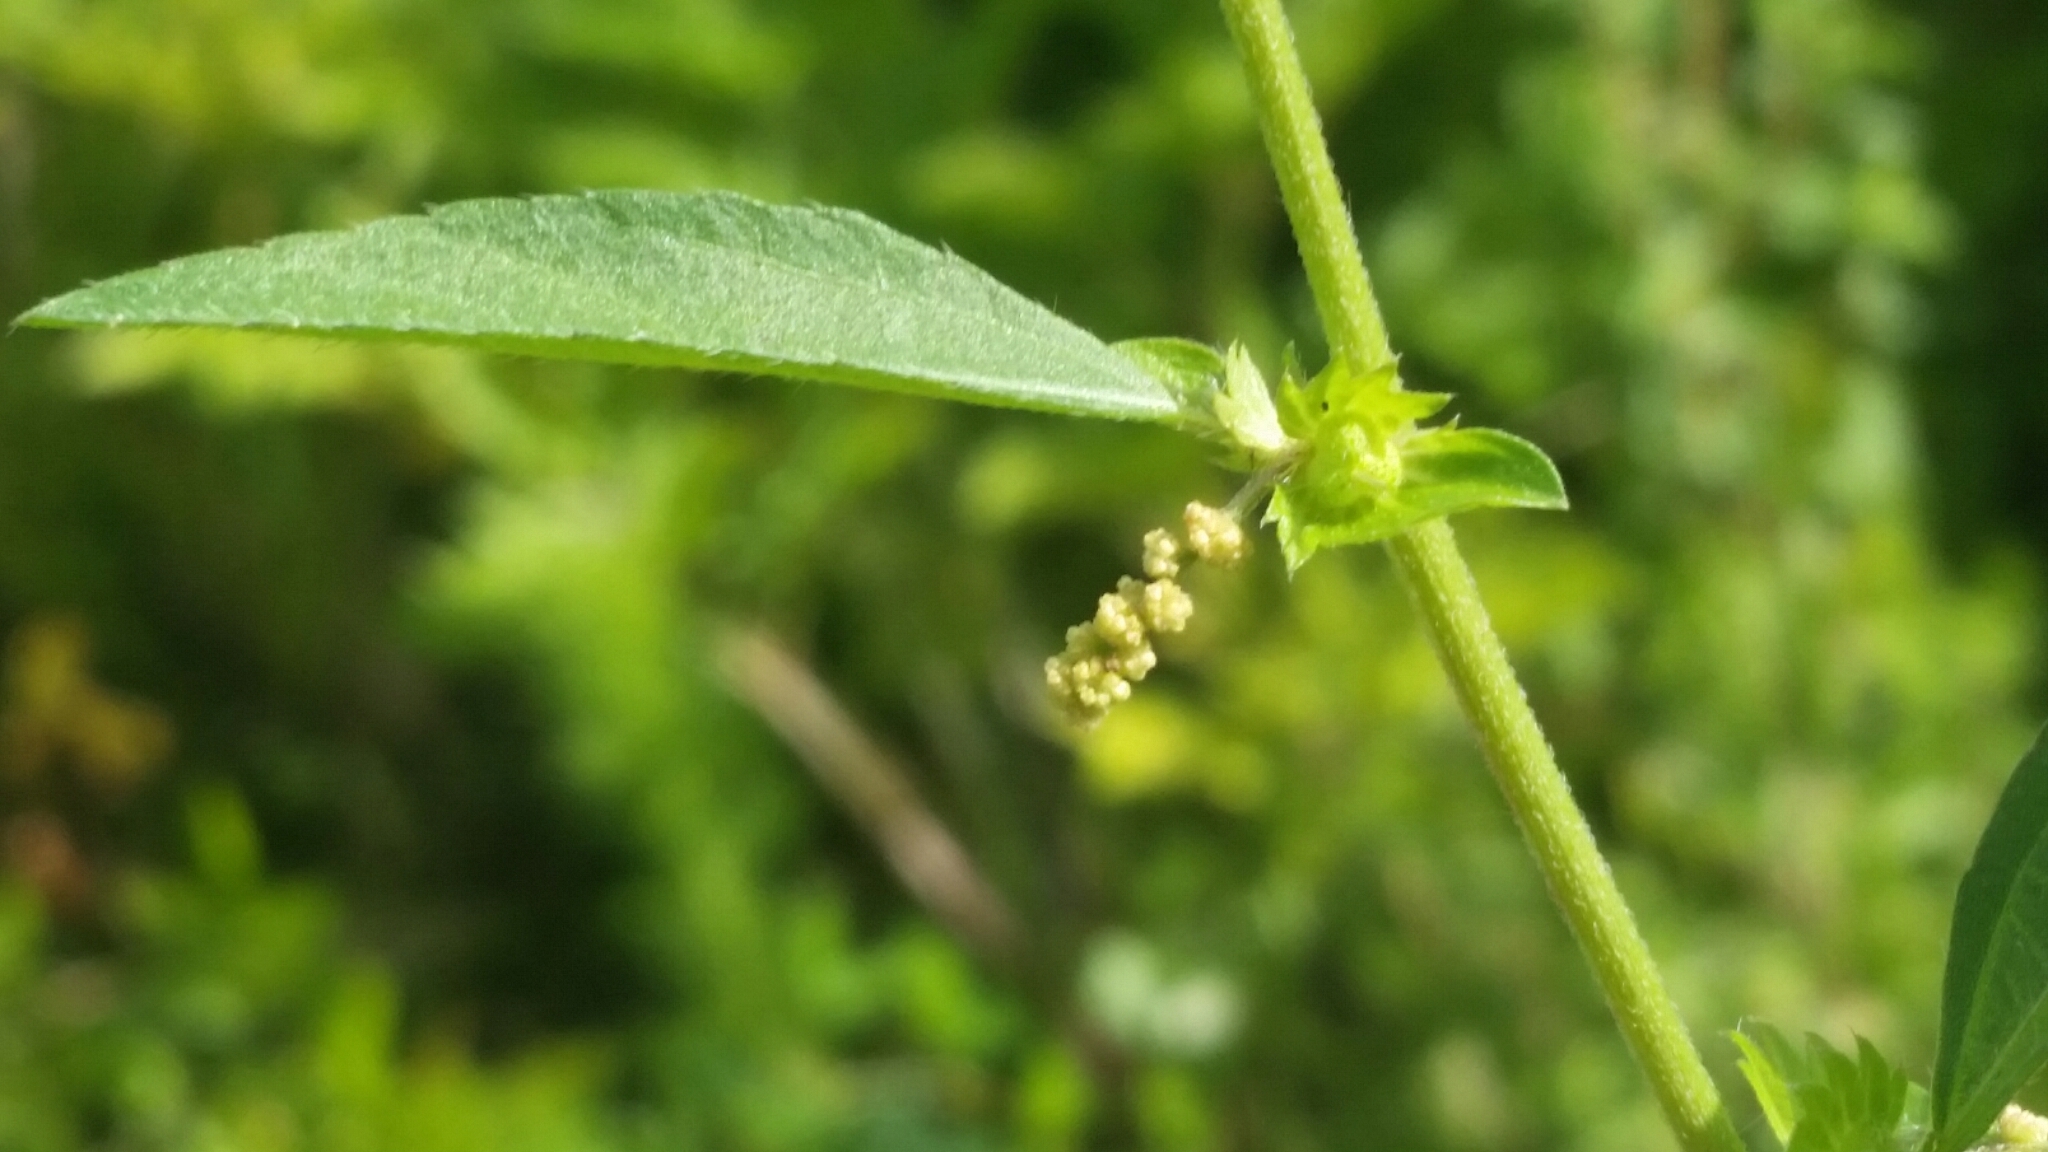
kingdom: Plantae
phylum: Tracheophyta
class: Magnoliopsida
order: Malpighiales
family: Euphorbiaceae
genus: Acalypha
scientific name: Acalypha gracilens
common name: Slender three-seeded mercury
